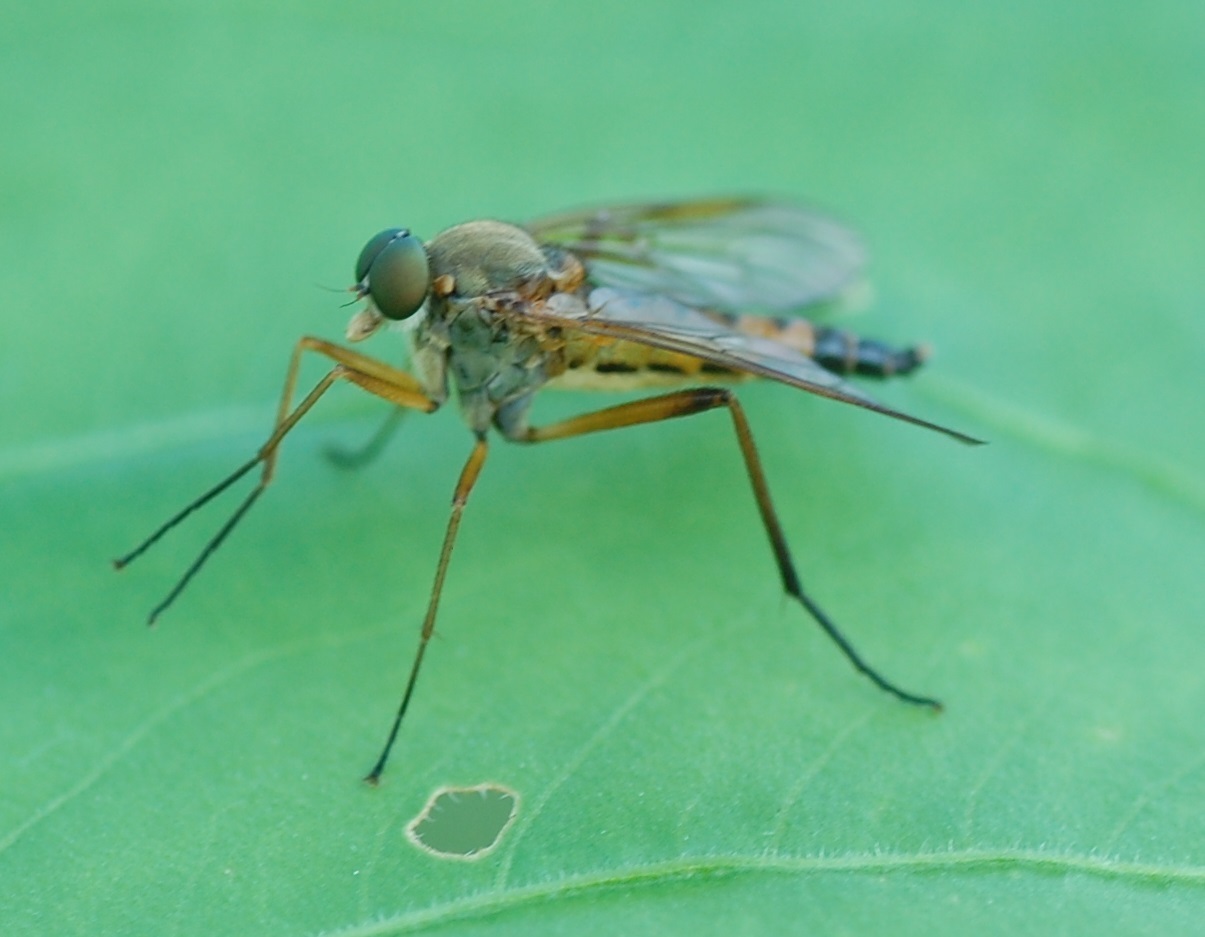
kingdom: Animalia
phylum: Arthropoda
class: Insecta
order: Diptera
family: Rhagionidae
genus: Rhagio
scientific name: Rhagio tringaria
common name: Marsh snipefly
